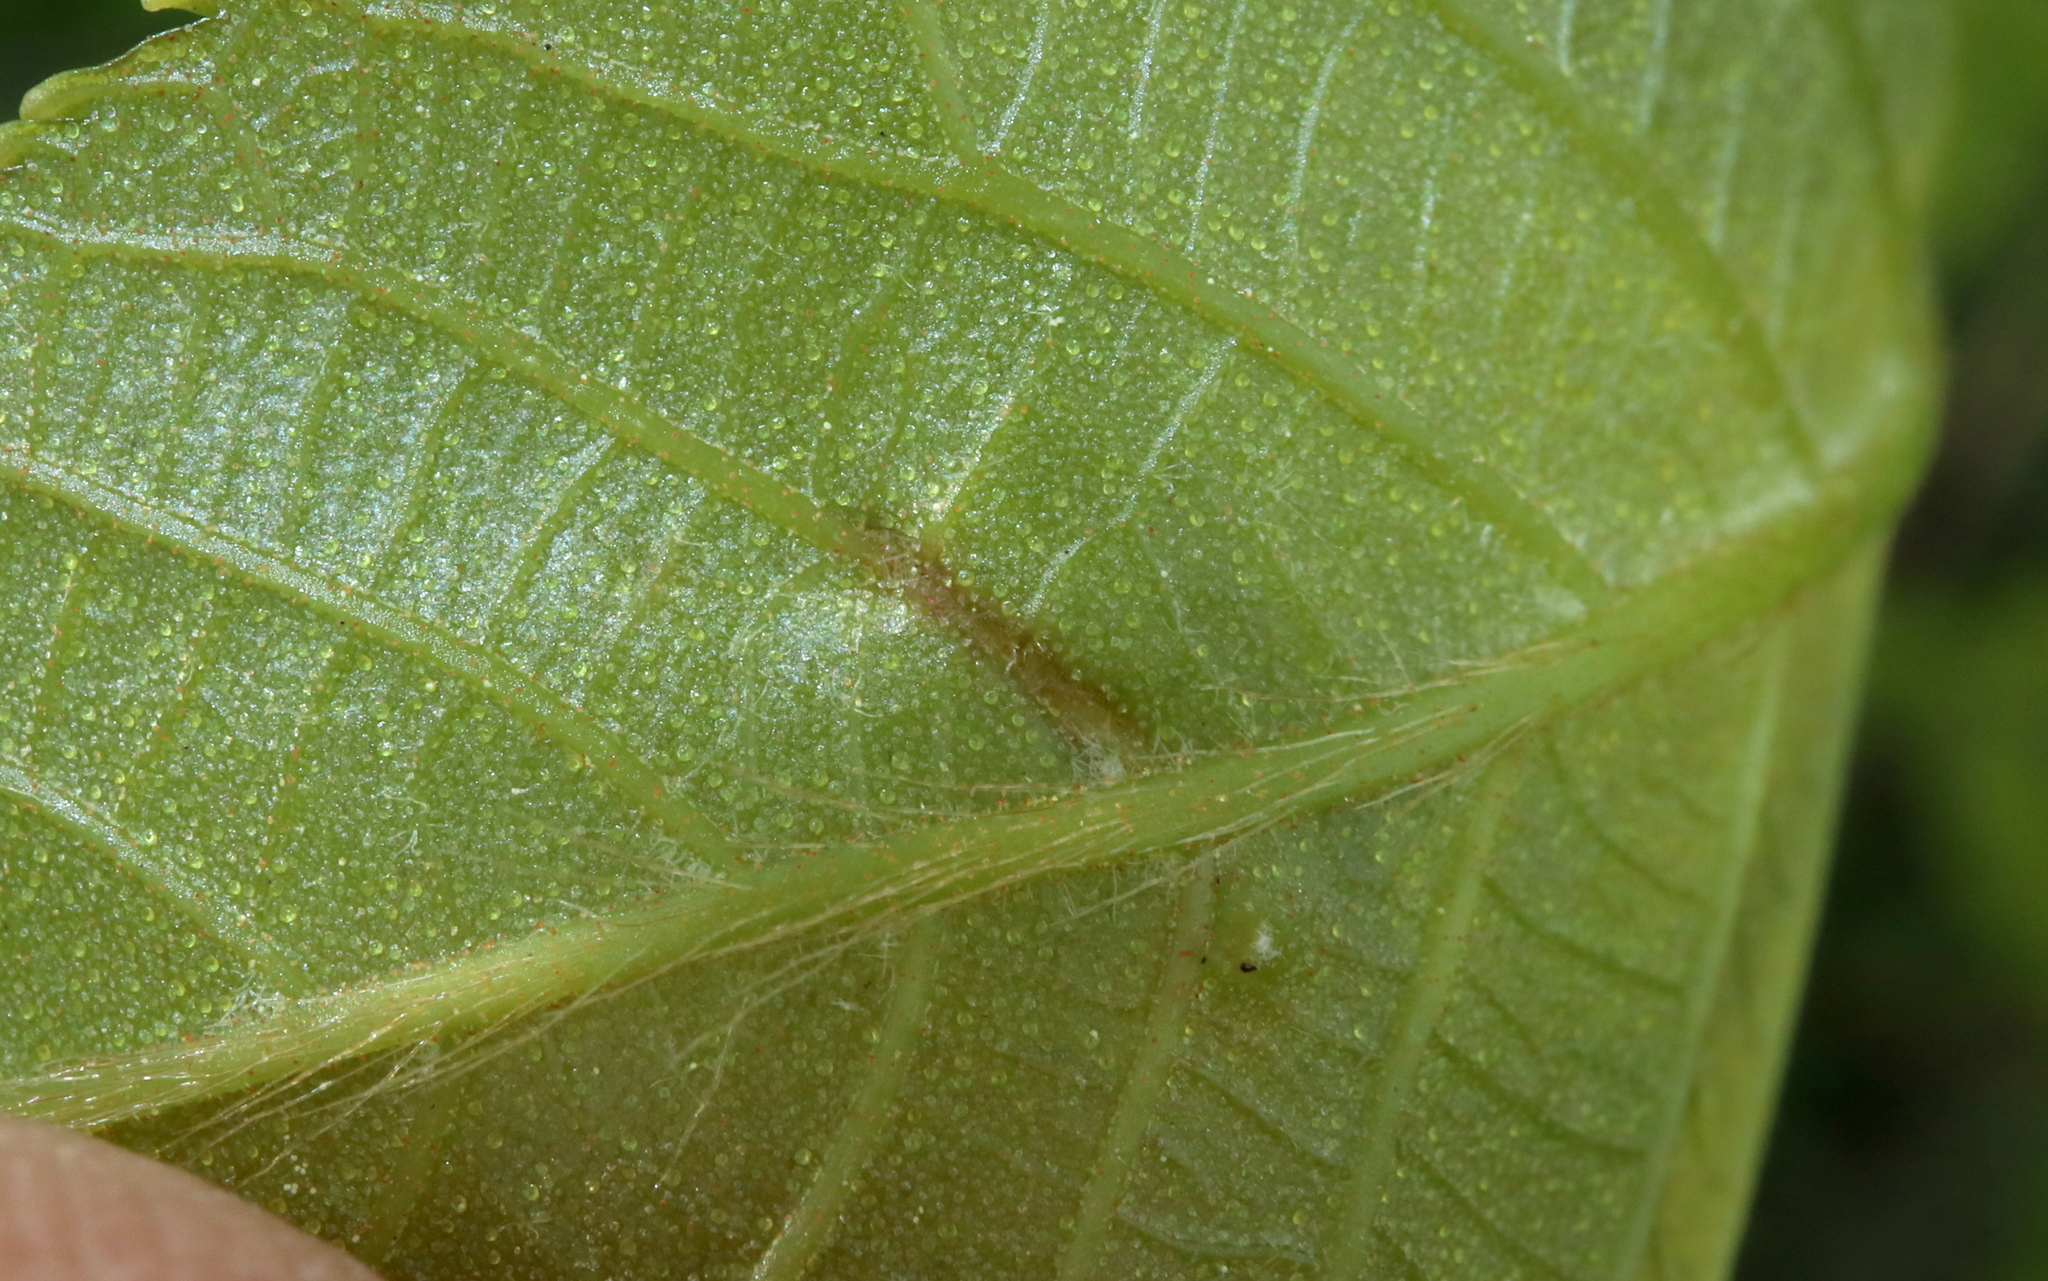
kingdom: Animalia
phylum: Arthropoda
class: Insecta
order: Hemiptera
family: Phylloxeridae
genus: Phylloxera
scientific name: Phylloxera caryaevenae
